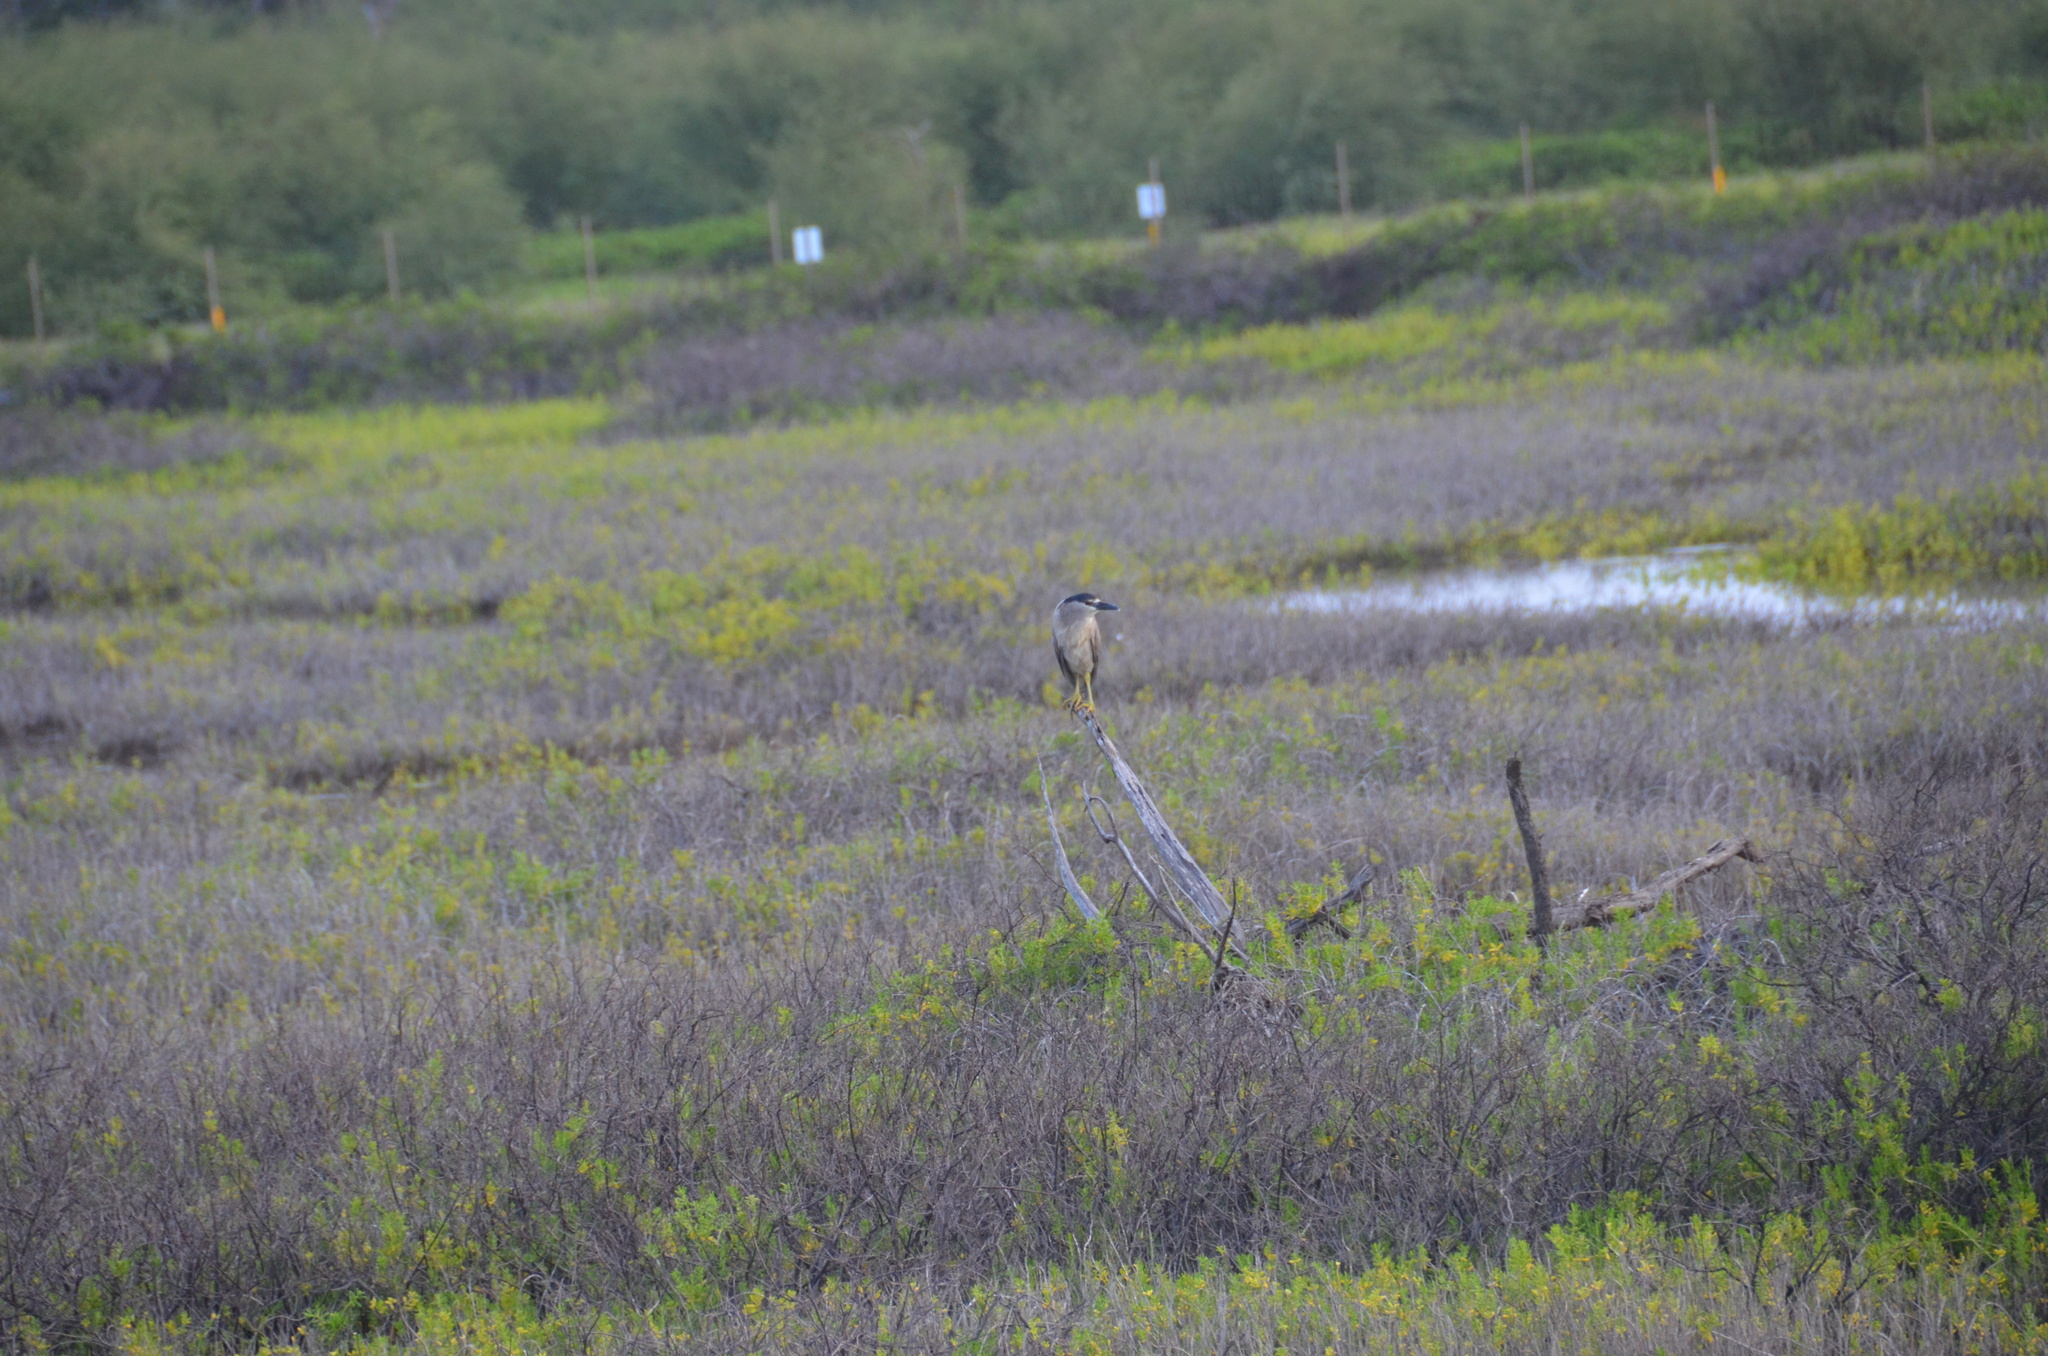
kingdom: Animalia
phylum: Chordata
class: Aves
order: Pelecaniformes
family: Ardeidae
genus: Nycticorax
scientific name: Nycticorax nycticorax
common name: Black-crowned night heron
